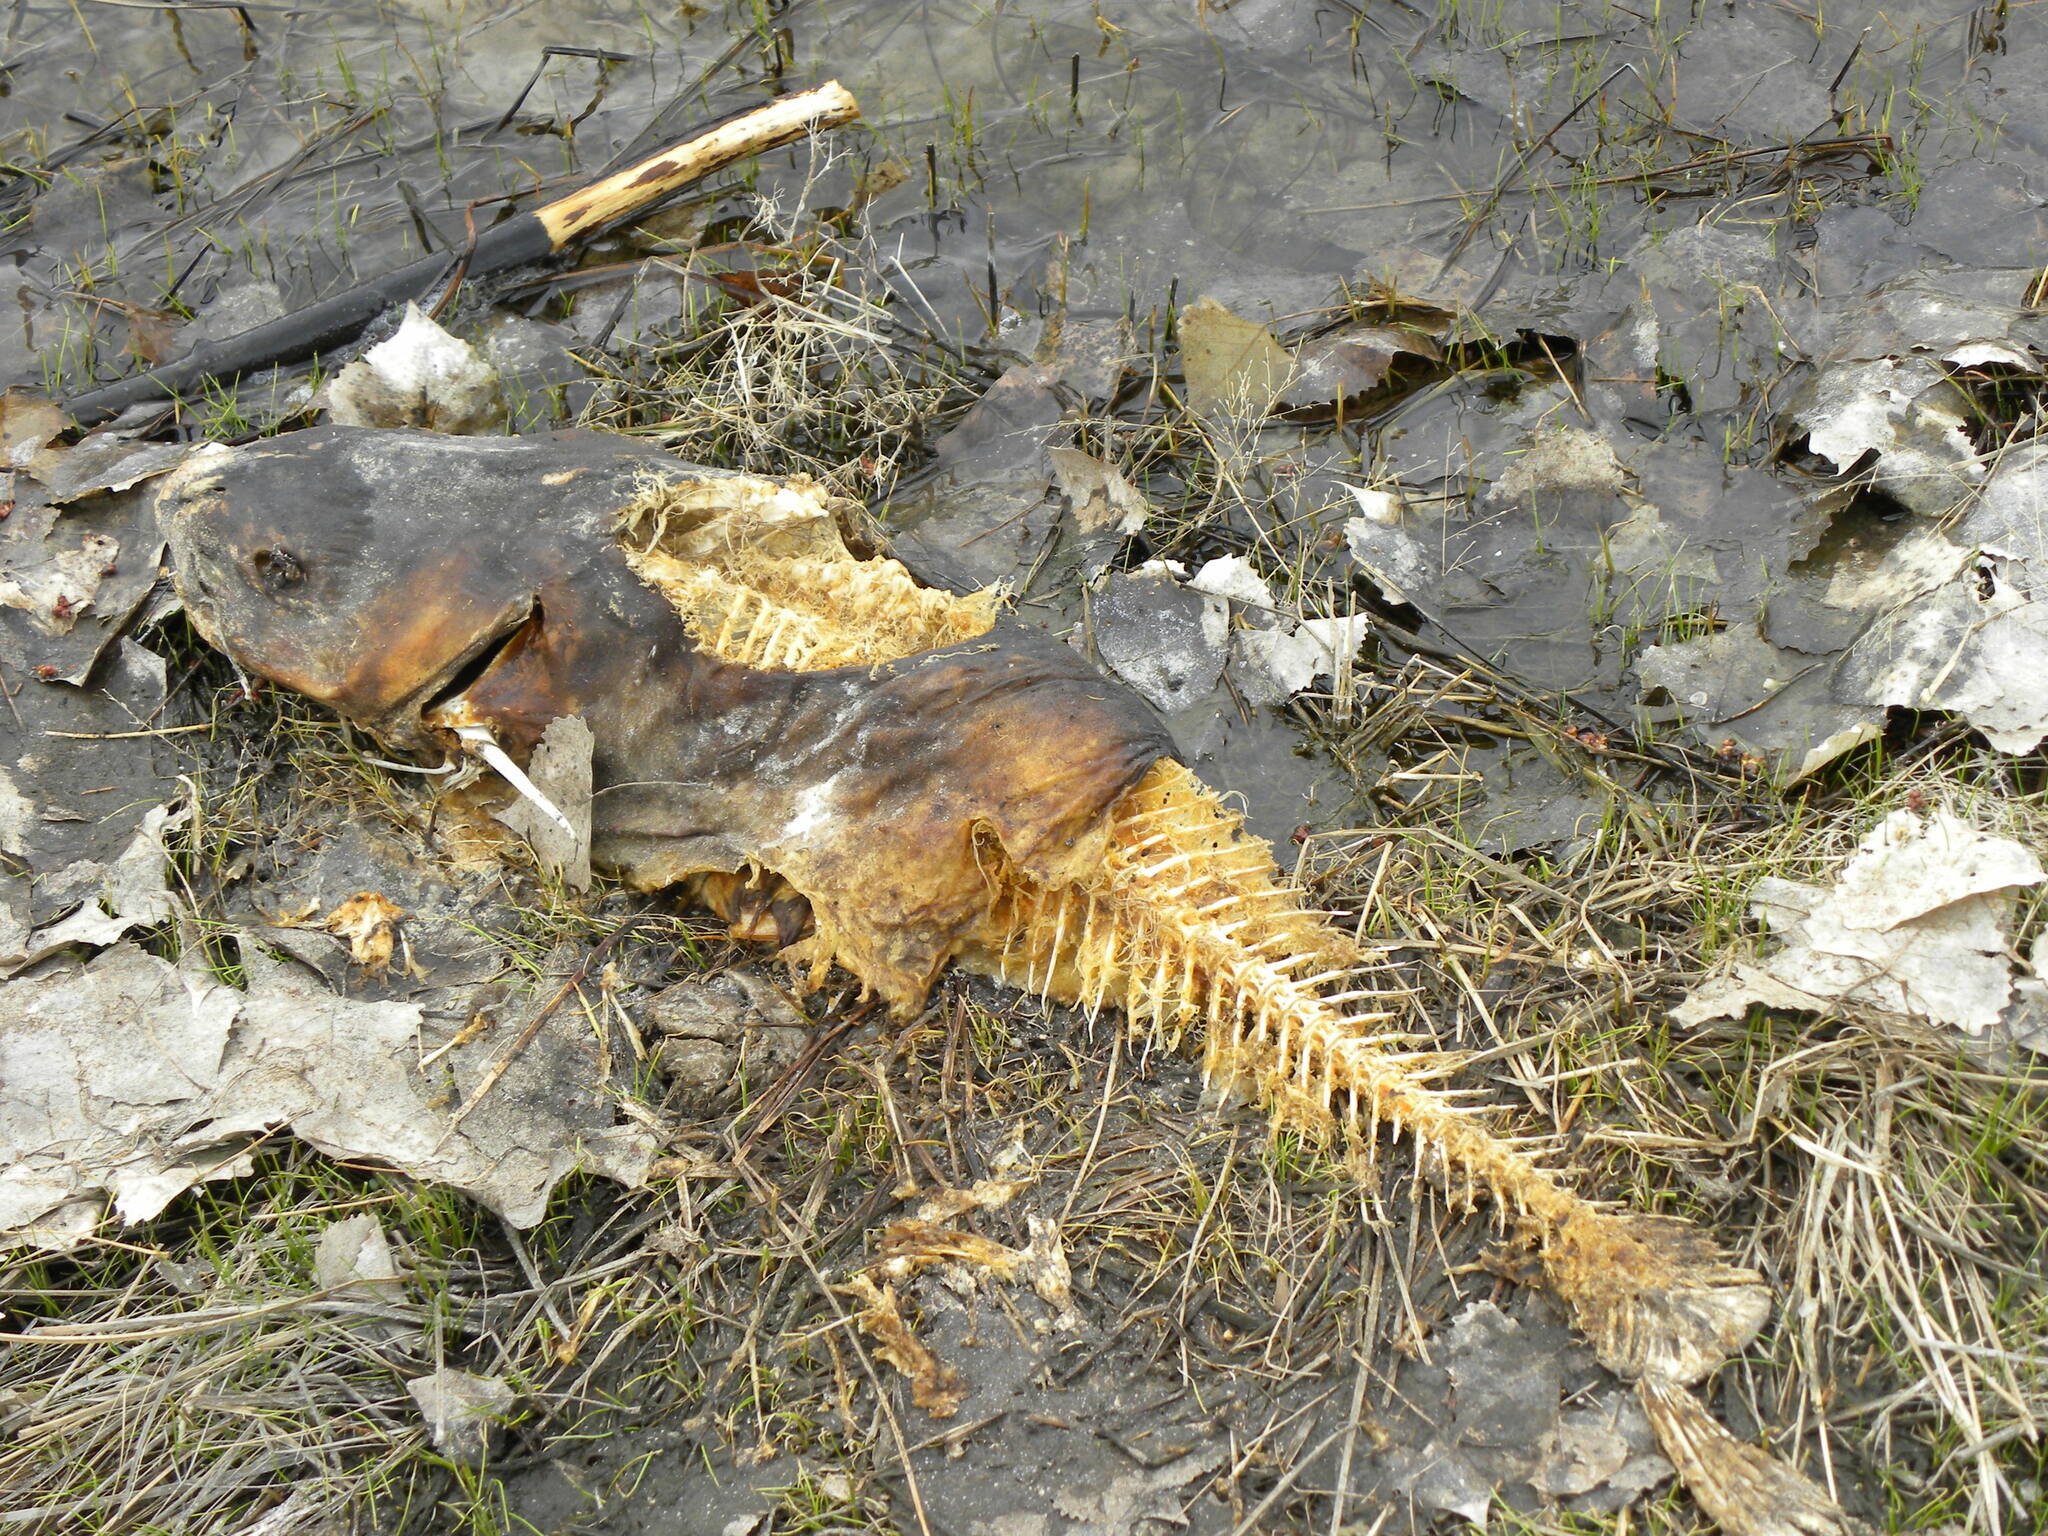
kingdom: Animalia
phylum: Chordata
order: Siluriformes
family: Ictaluridae
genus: Ictalurus
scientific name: Ictalurus punctatus
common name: Channel catfish
